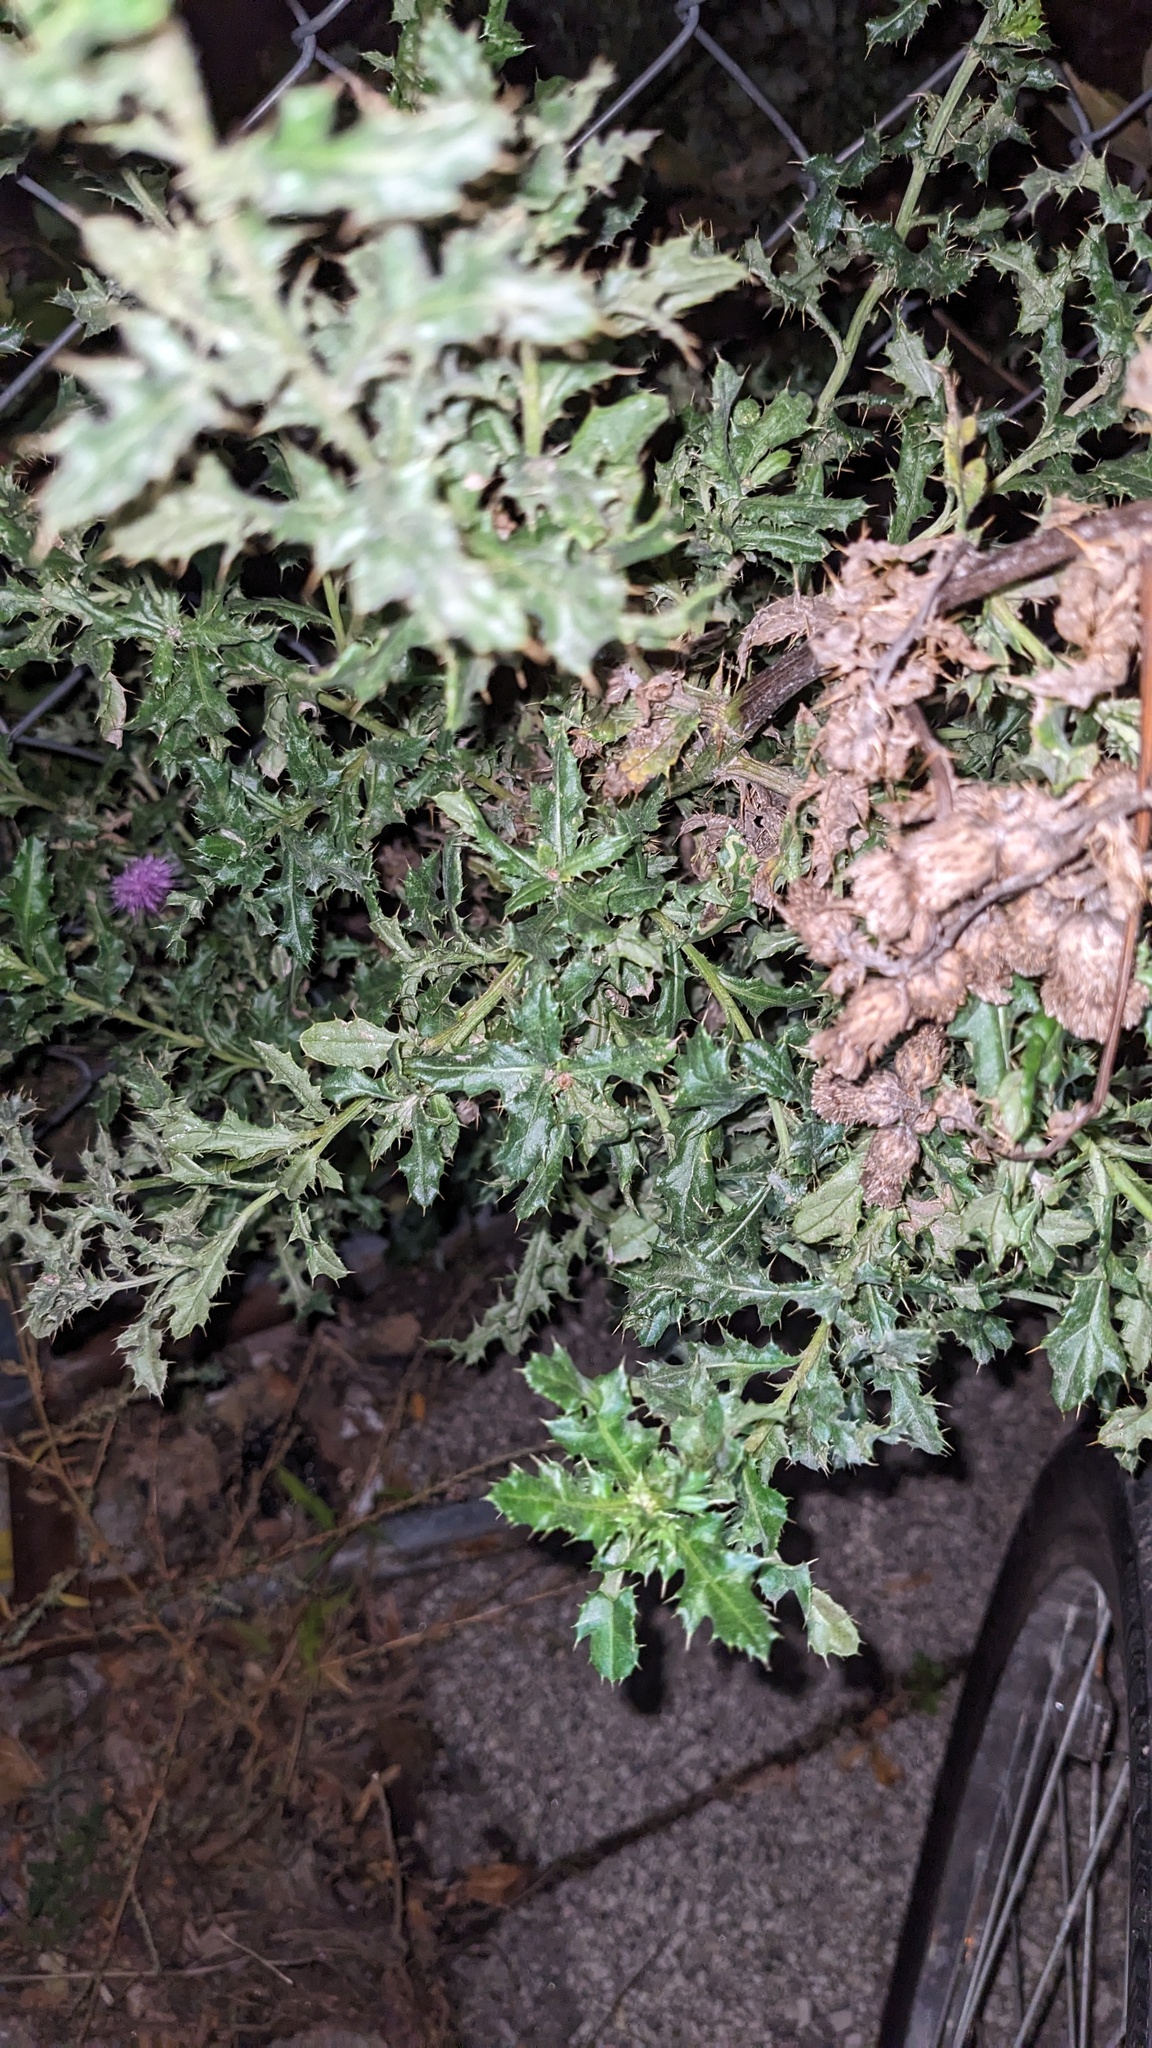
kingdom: Plantae
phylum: Tracheophyta
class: Magnoliopsida
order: Asterales
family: Asteraceae
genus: Cirsium
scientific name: Cirsium arvense
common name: Creeping thistle
